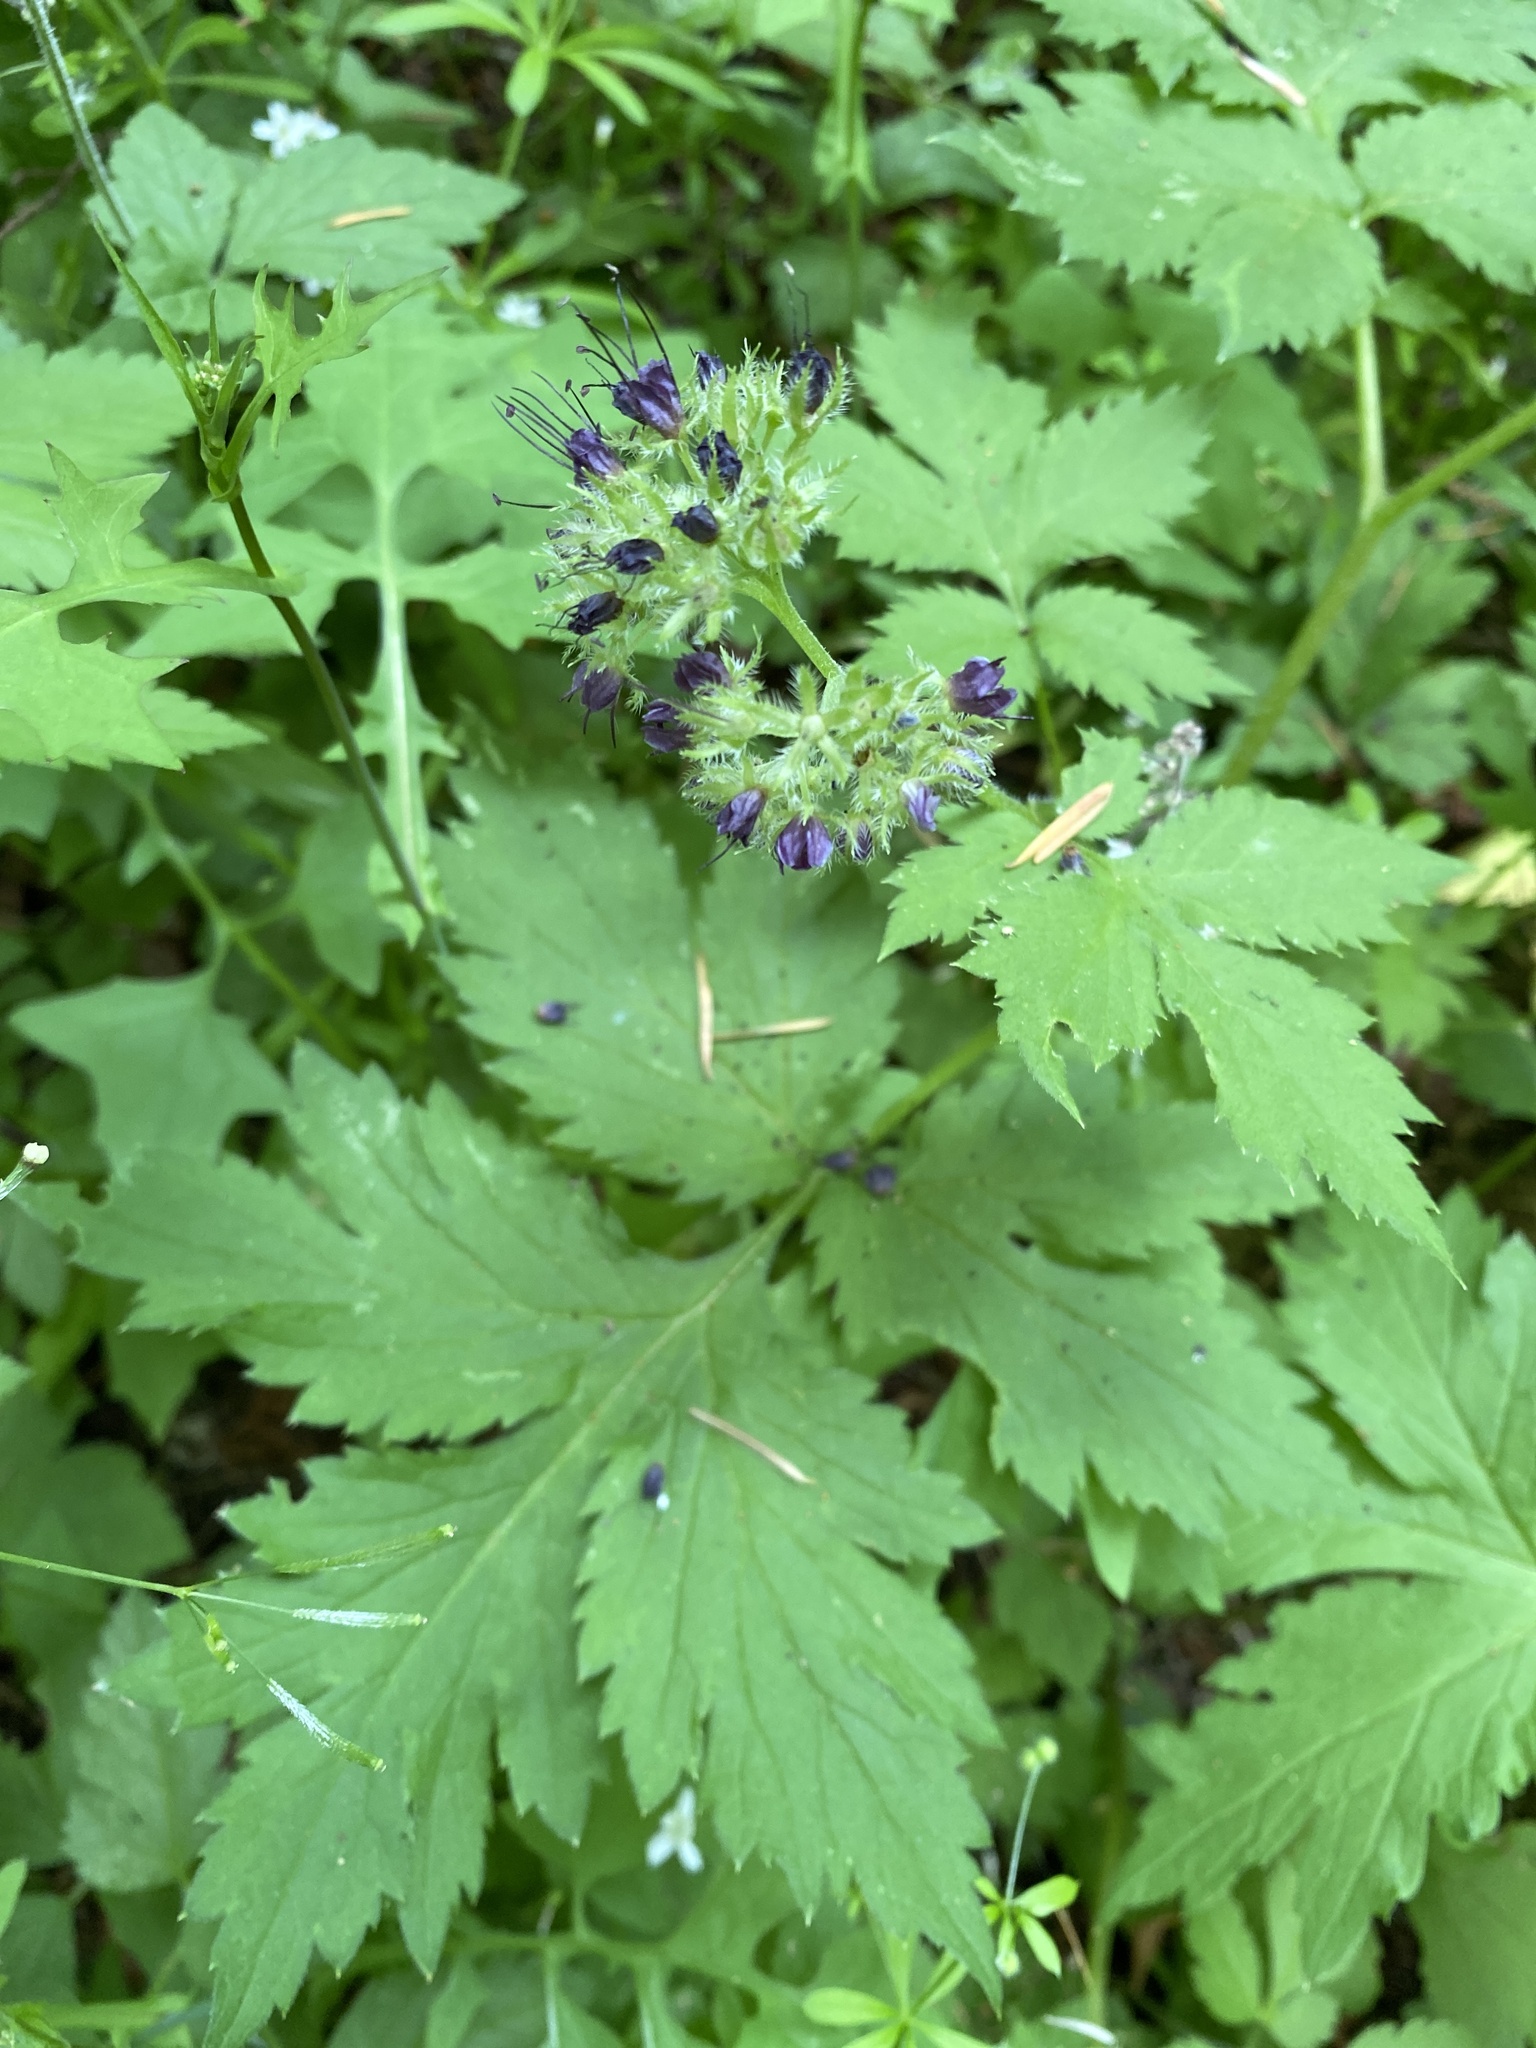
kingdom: Plantae
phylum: Tracheophyta
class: Magnoliopsida
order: Boraginales
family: Hydrophyllaceae
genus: Hydrophyllum
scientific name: Hydrophyllum tenuipes
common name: Pacific waterleaf
